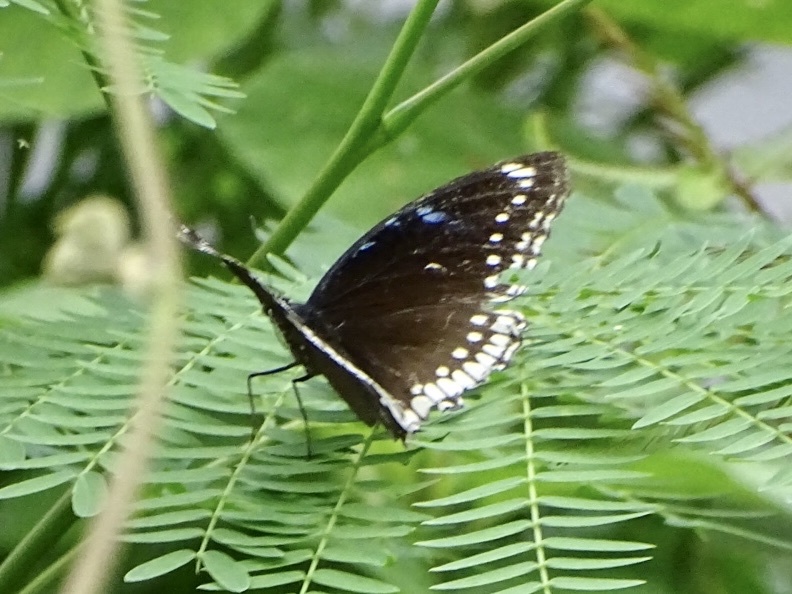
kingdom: Animalia
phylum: Arthropoda
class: Insecta
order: Lepidoptera
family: Nymphalidae
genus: Hypolimnas
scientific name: Hypolimnas bolina
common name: Great eggfly
